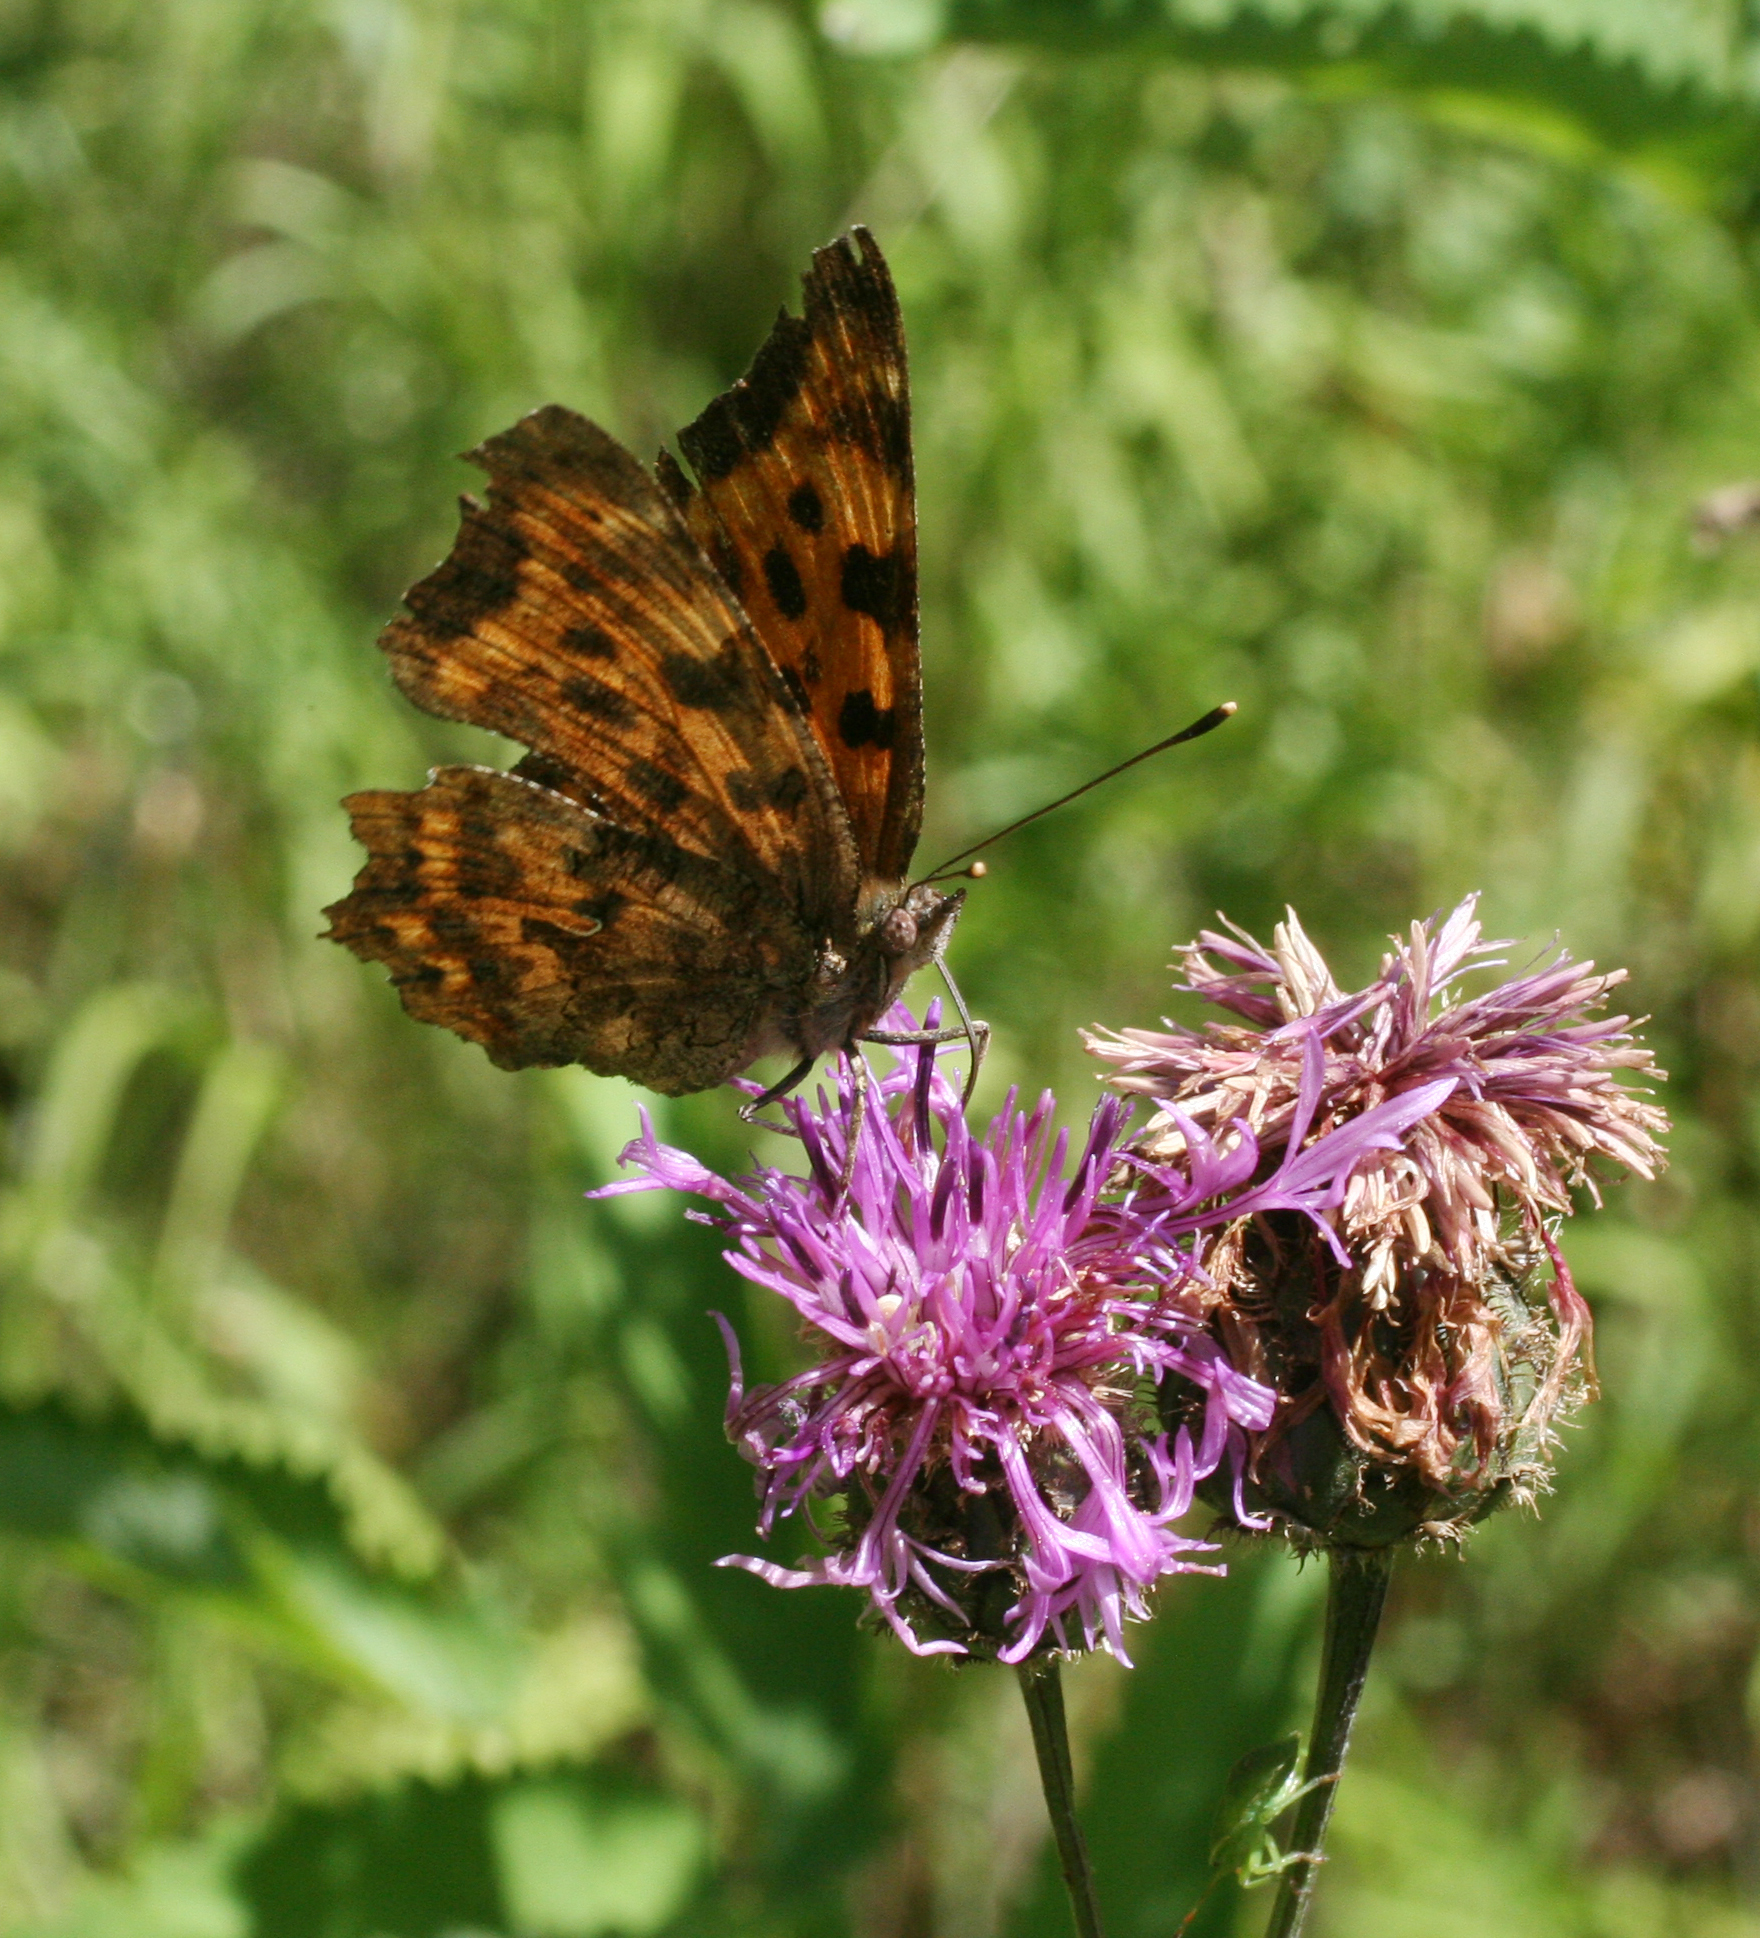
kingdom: Animalia
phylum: Arthropoda
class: Insecta
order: Lepidoptera
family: Nymphalidae
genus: Polygonia
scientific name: Polygonia c-album
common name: Comma
